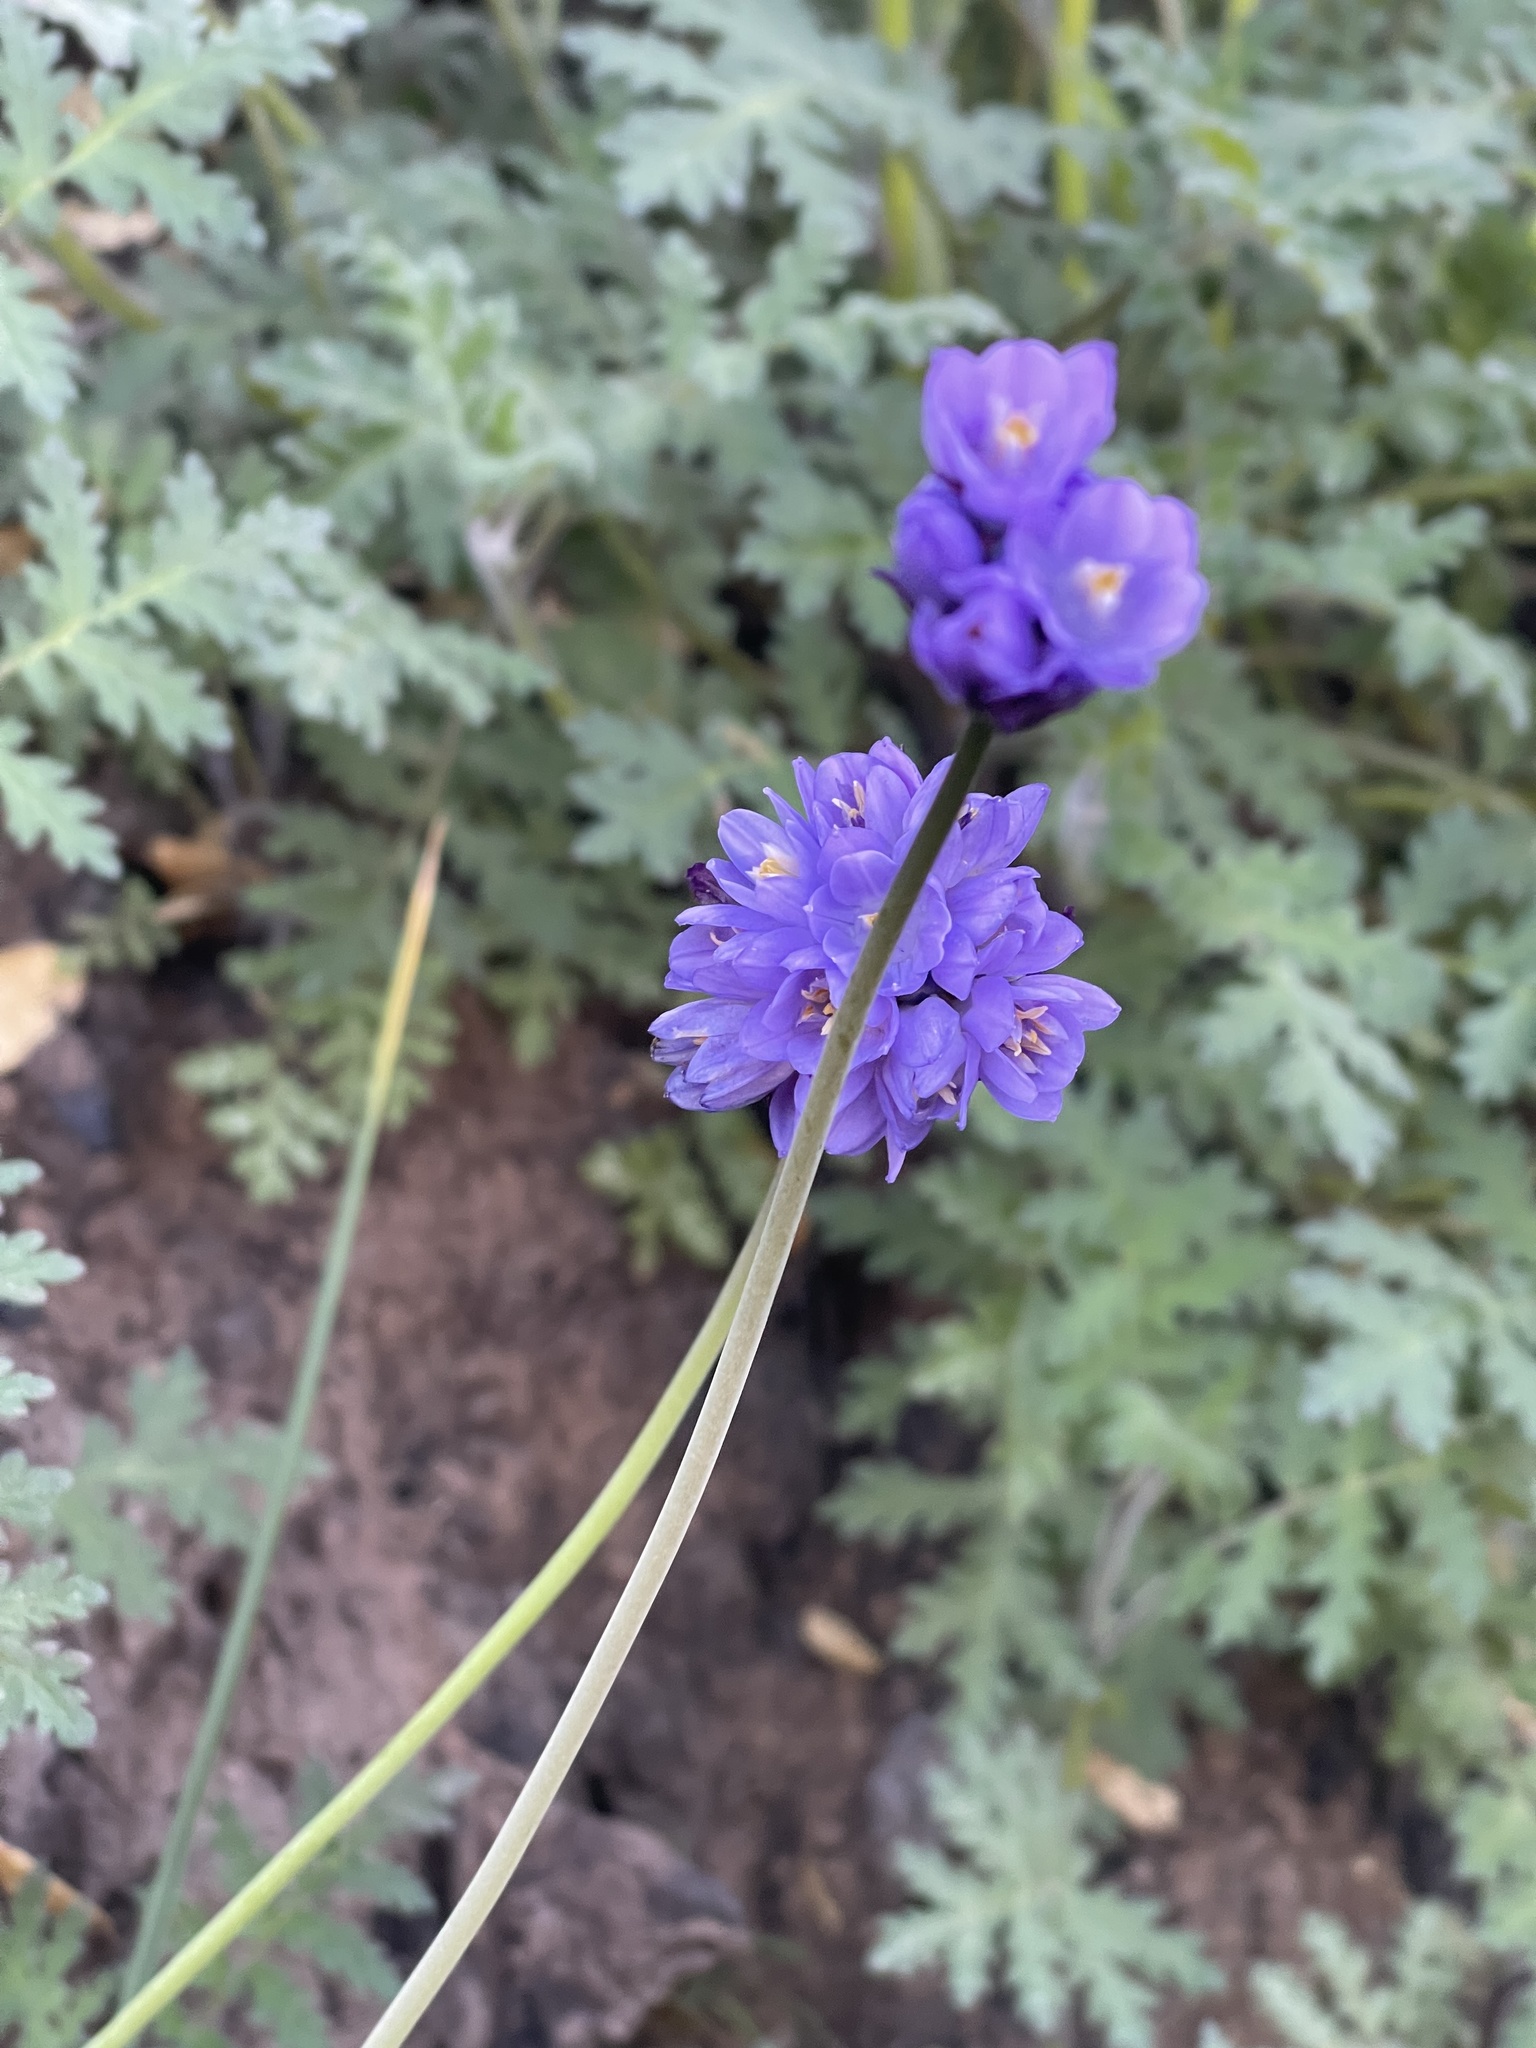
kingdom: Plantae
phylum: Tracheophyta
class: Liliopsida
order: Asparagales
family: Asparagaceae
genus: Dipterostemon
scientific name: Dipterostemon capitatus
